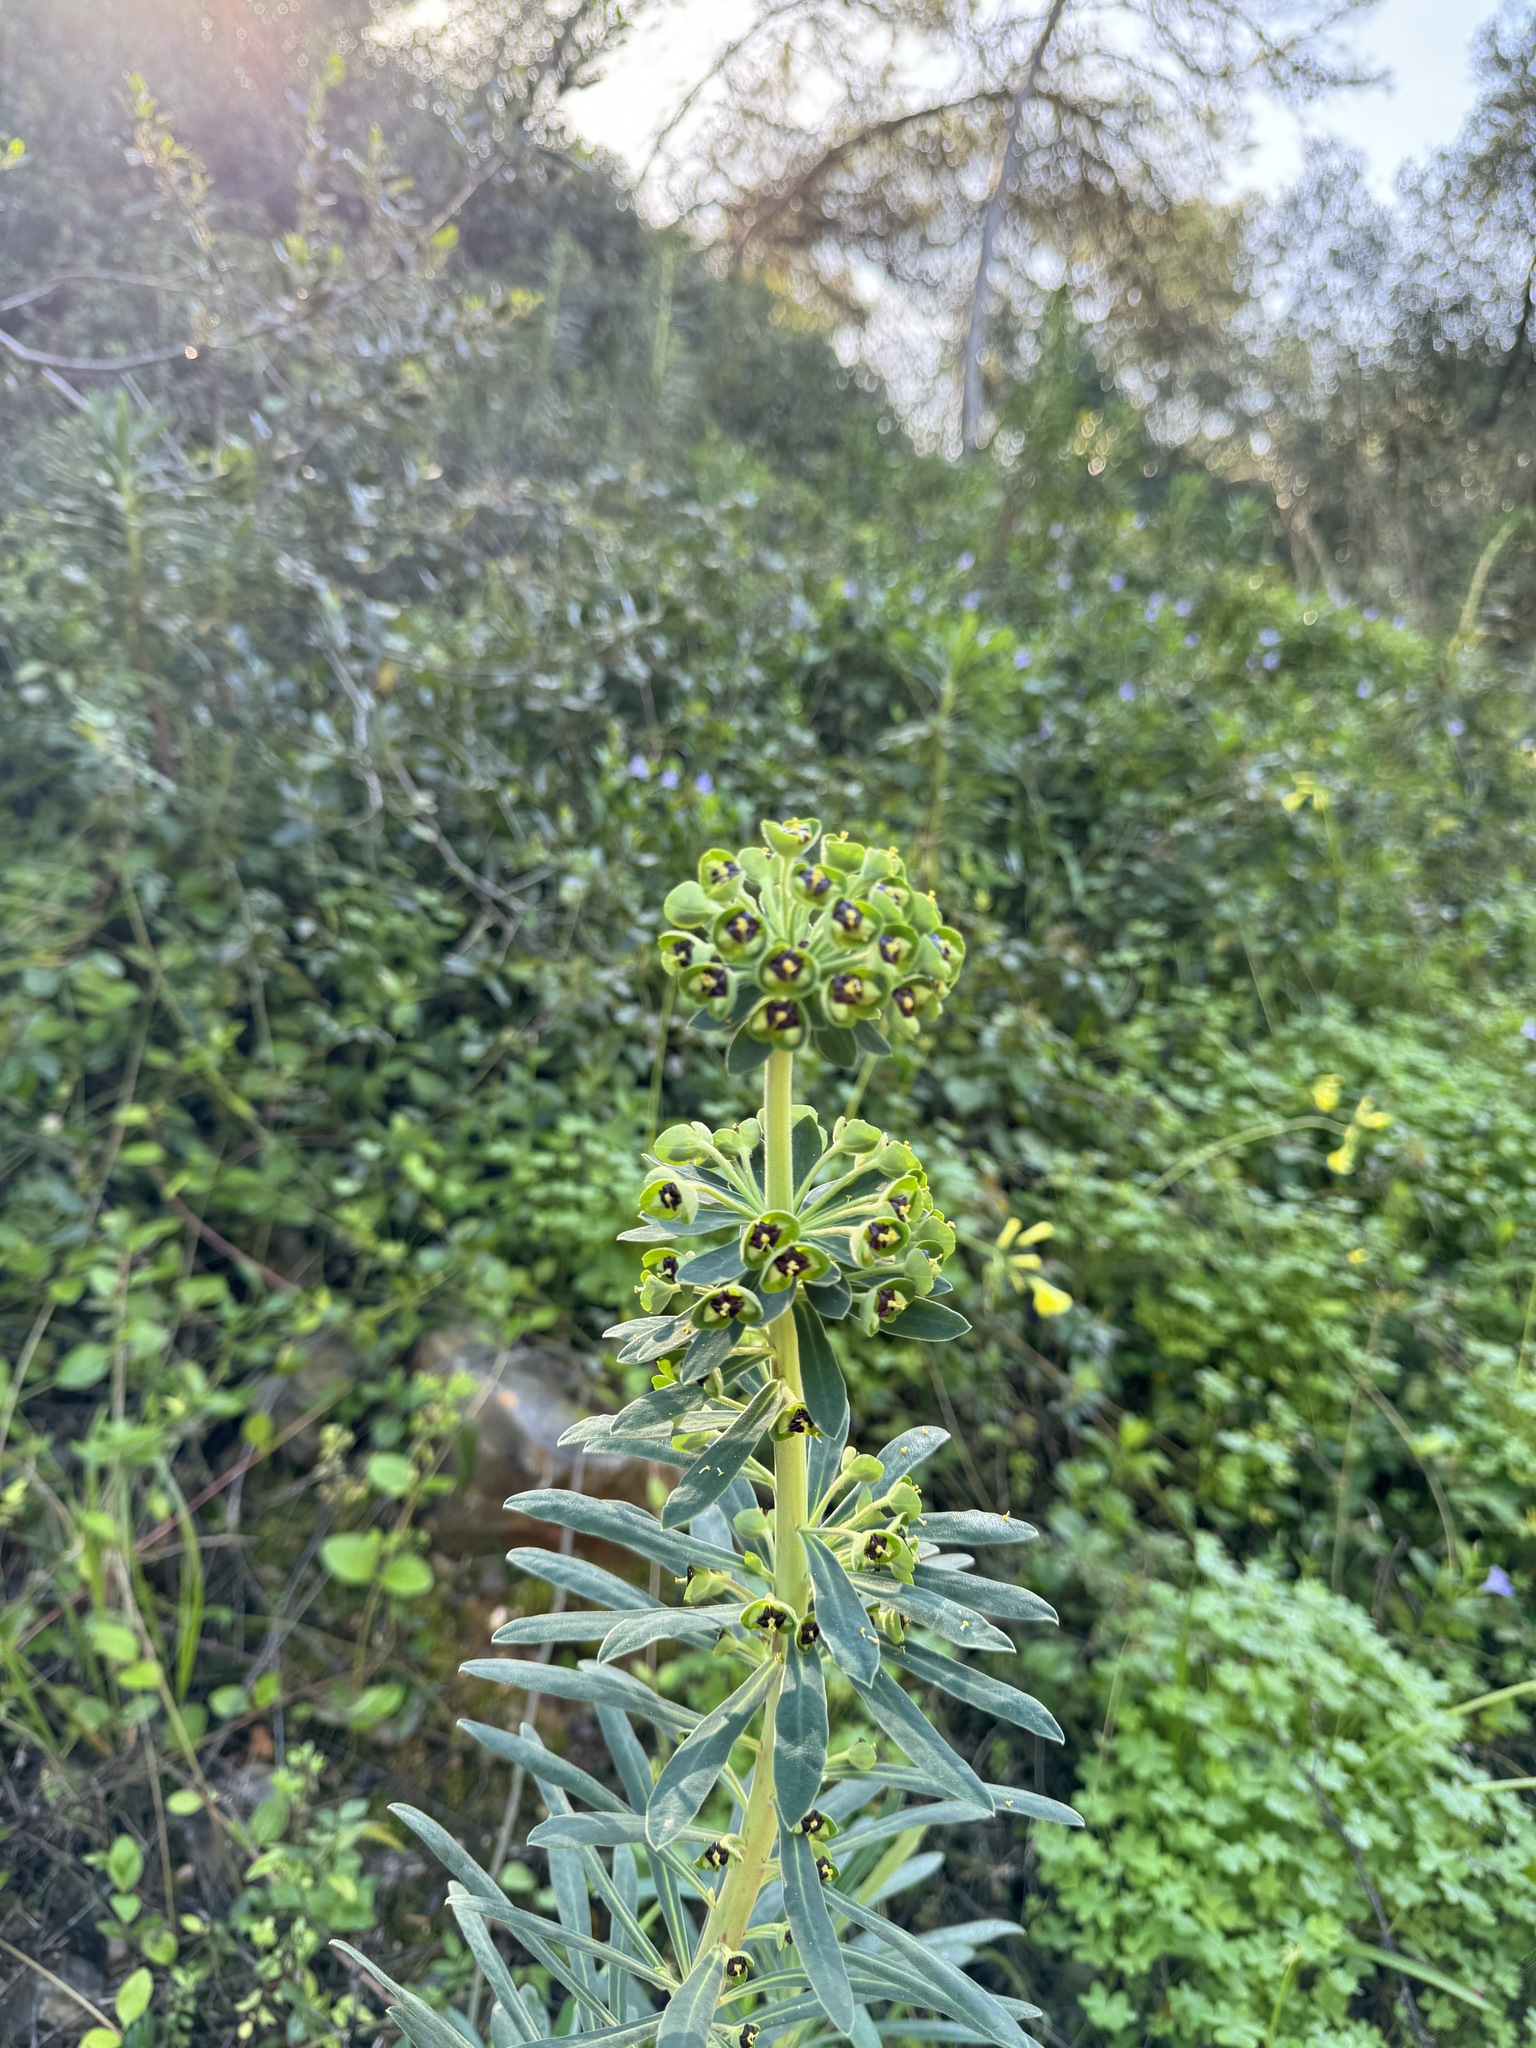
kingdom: Plantae
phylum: Tracheophyta
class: Magnoliopsida
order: Malpighiales
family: Euphorbiaceae
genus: Euphorbia
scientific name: Euphorbia characias
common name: Mediterranean spurge
